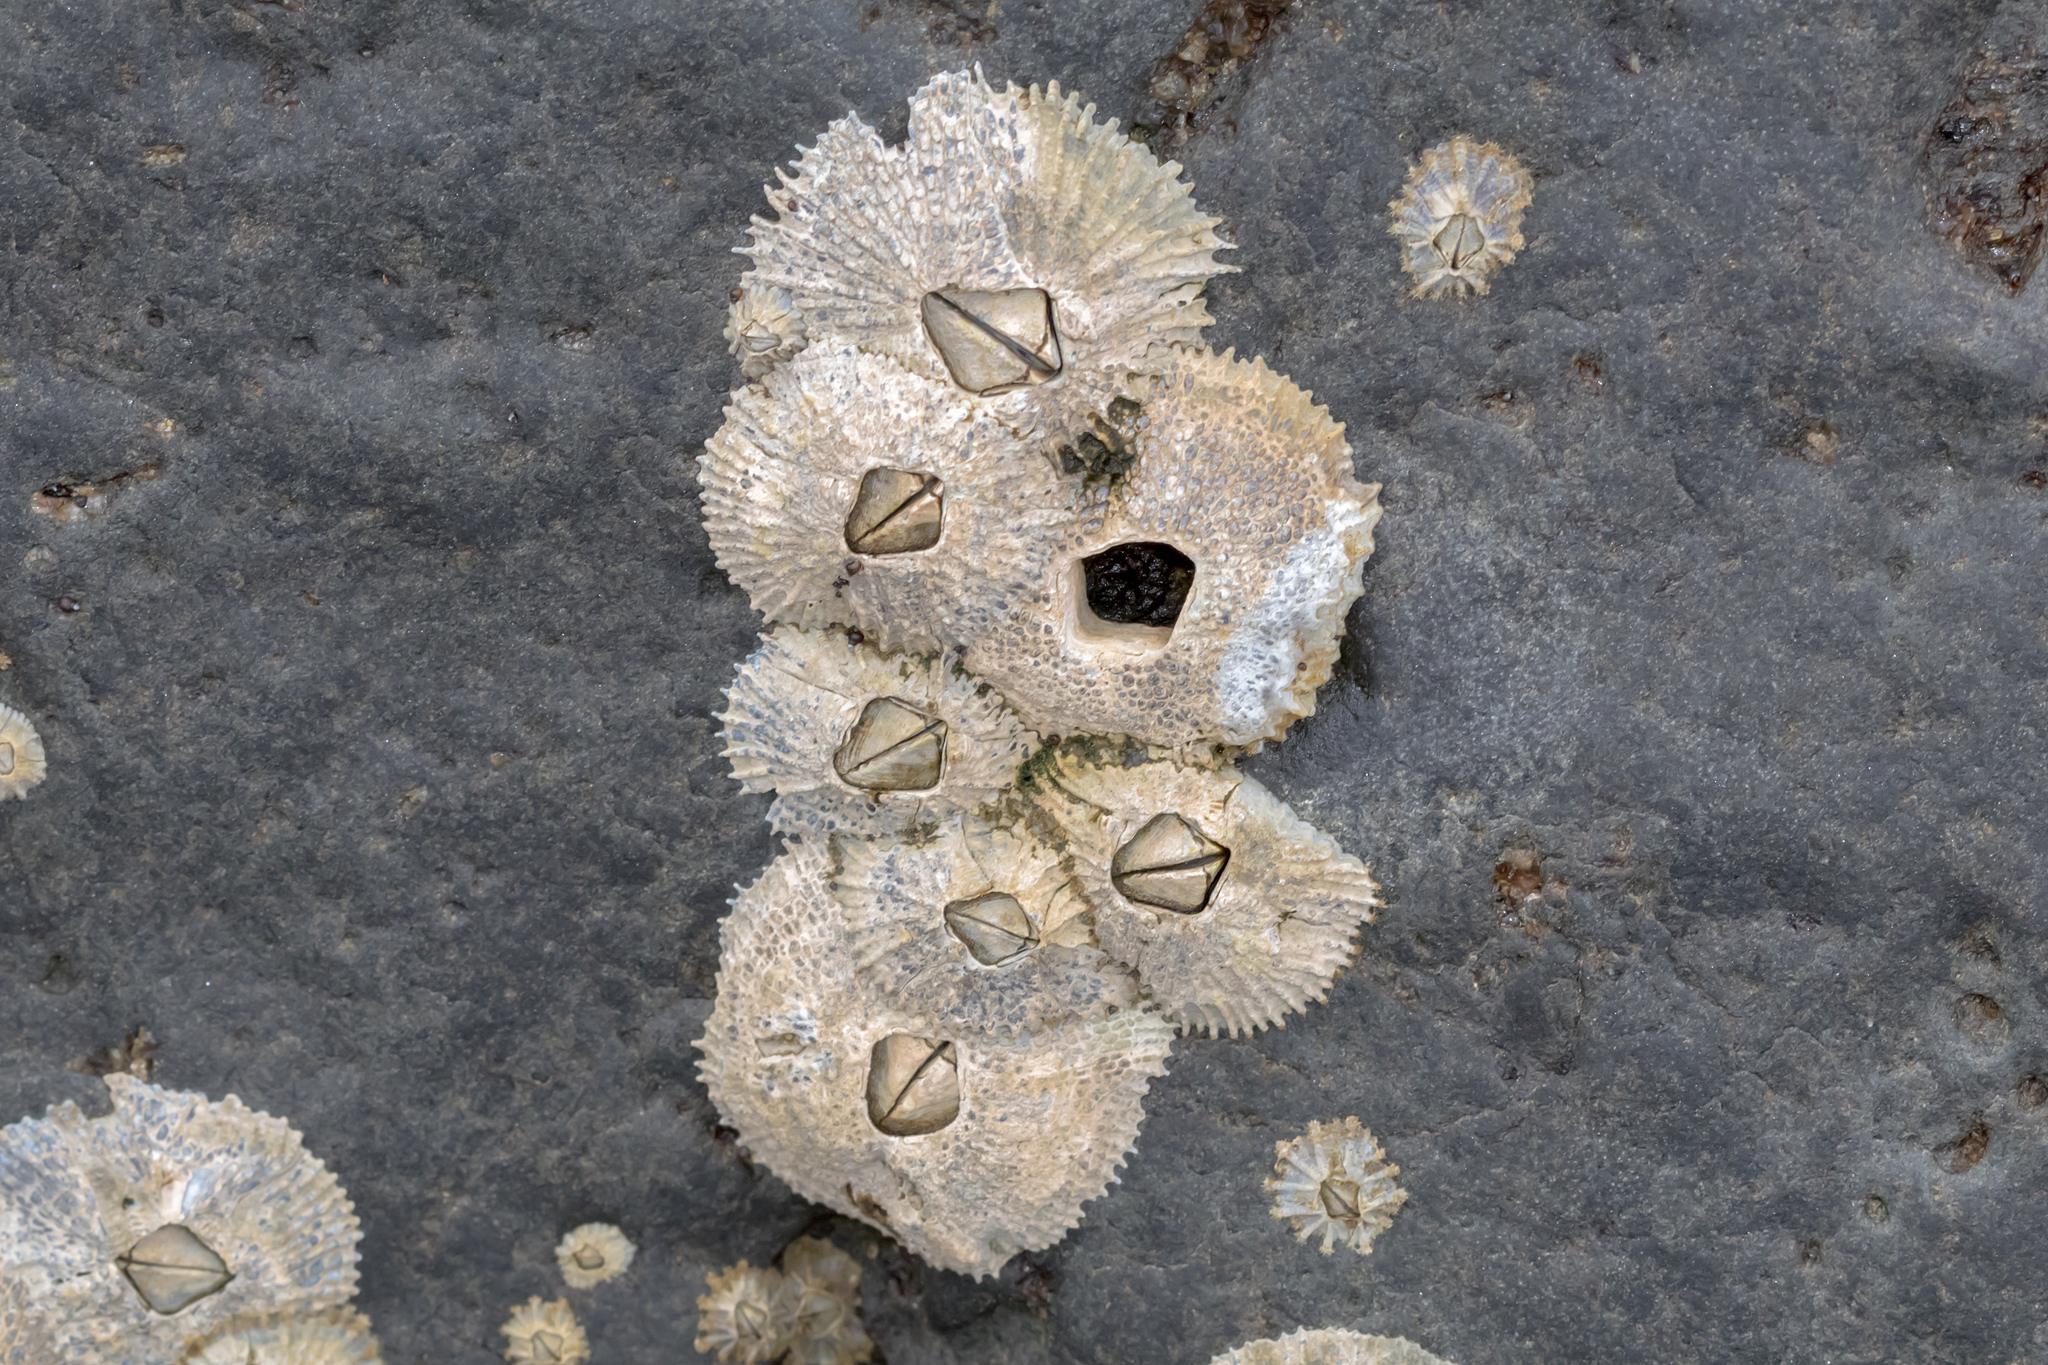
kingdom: Animalia
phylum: Arthropoda
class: Maxillopoda
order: Sessilia
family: Tetraclitidae
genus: Tetraclitella
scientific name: Tetraclitella purpurascens
